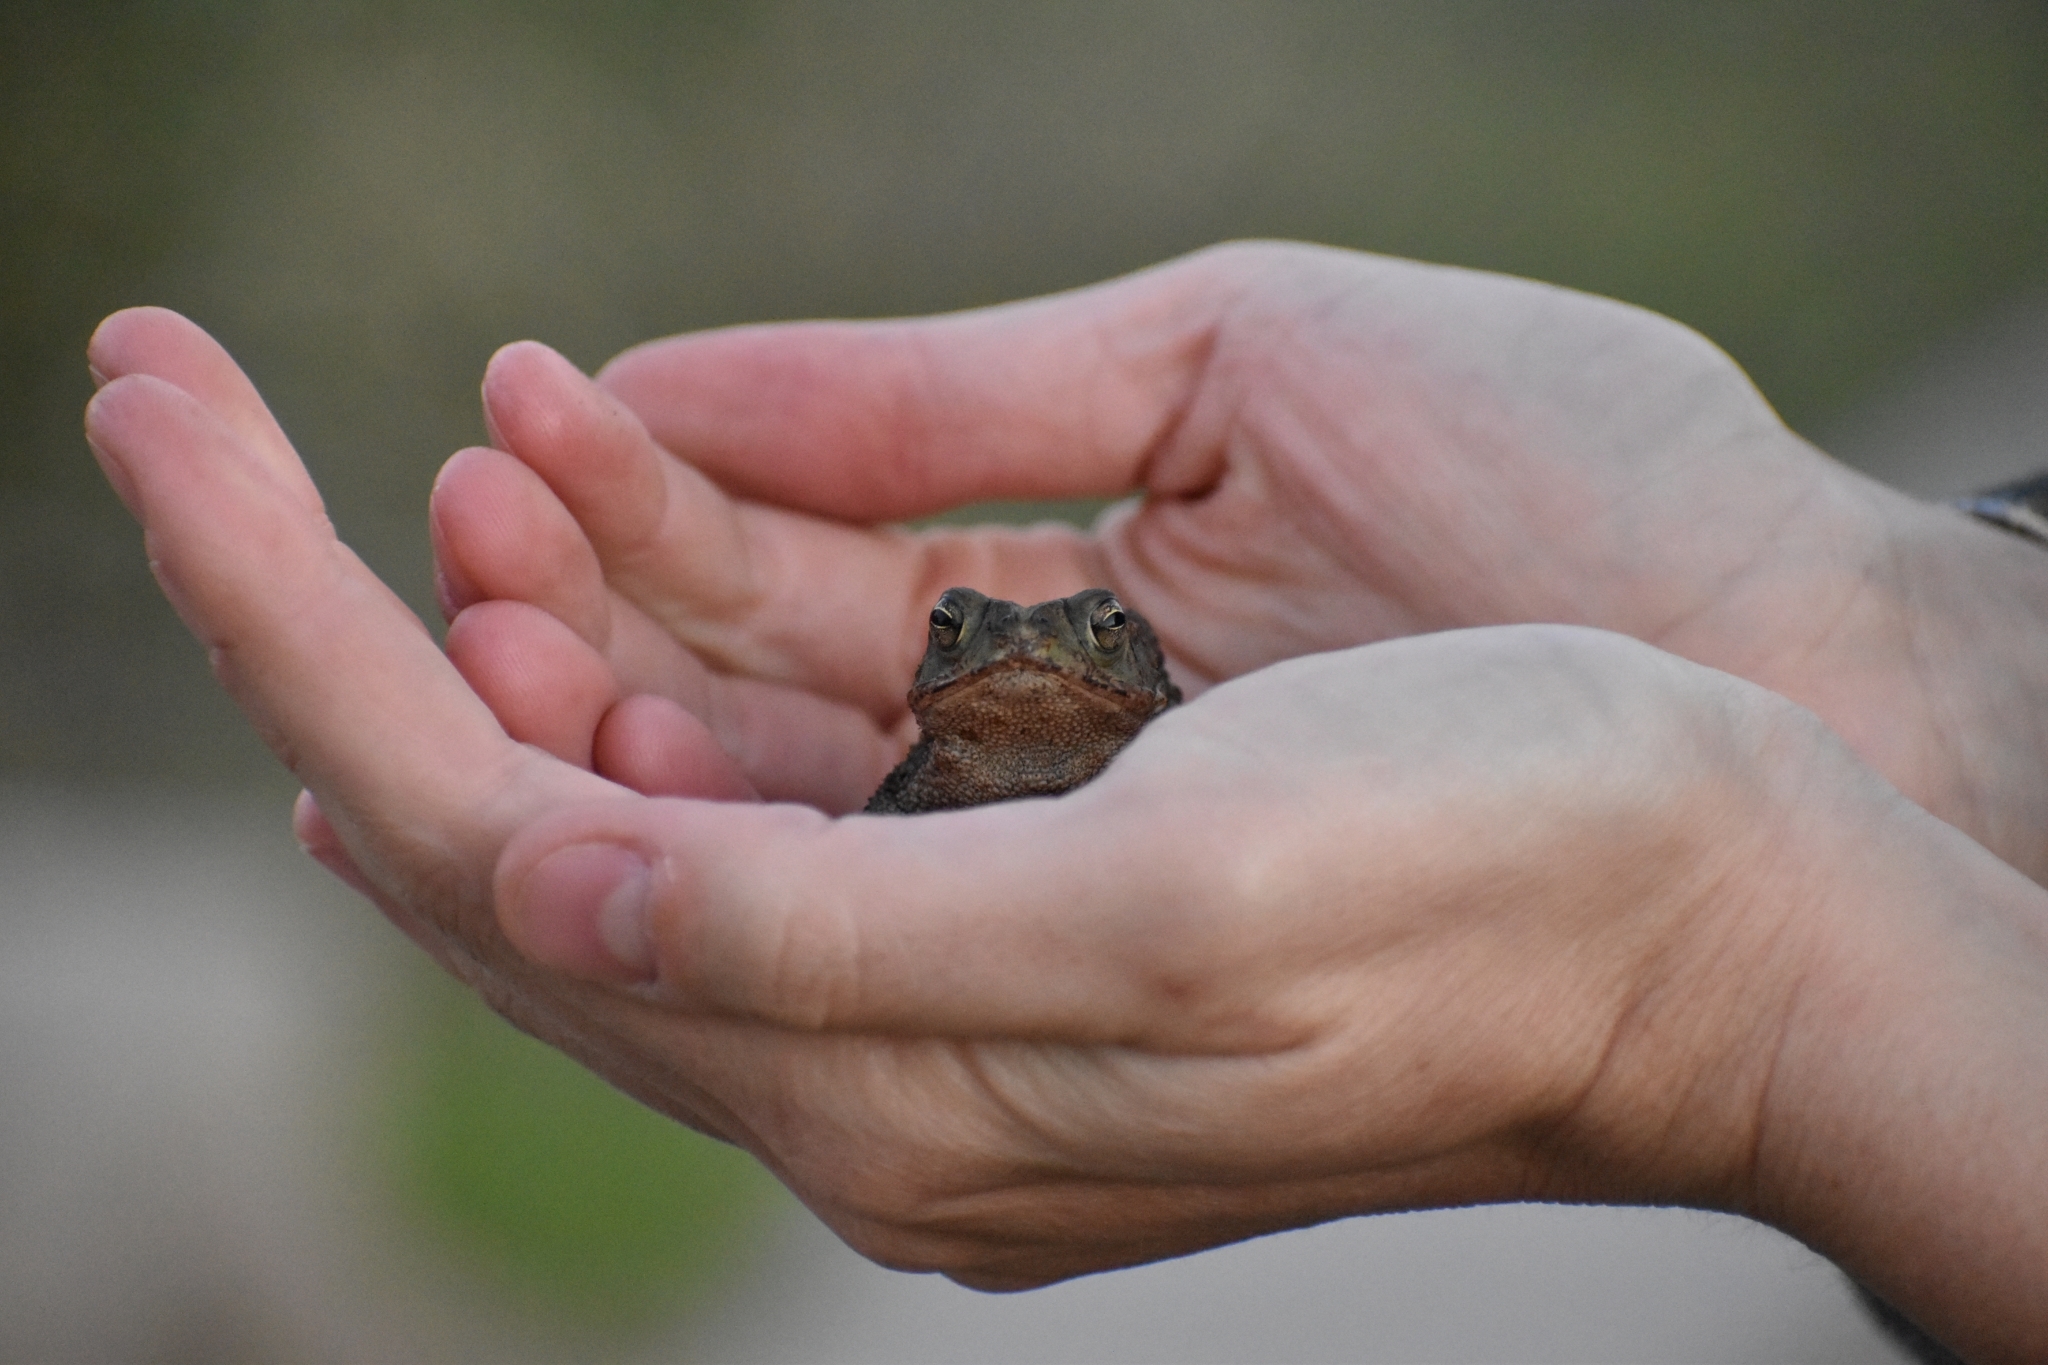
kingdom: Animalia
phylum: Chordata
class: Amphibia
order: Anura
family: Bufonidae
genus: Rhinella
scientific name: Rhinella dorbignyi
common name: D´orbigny’s toad
